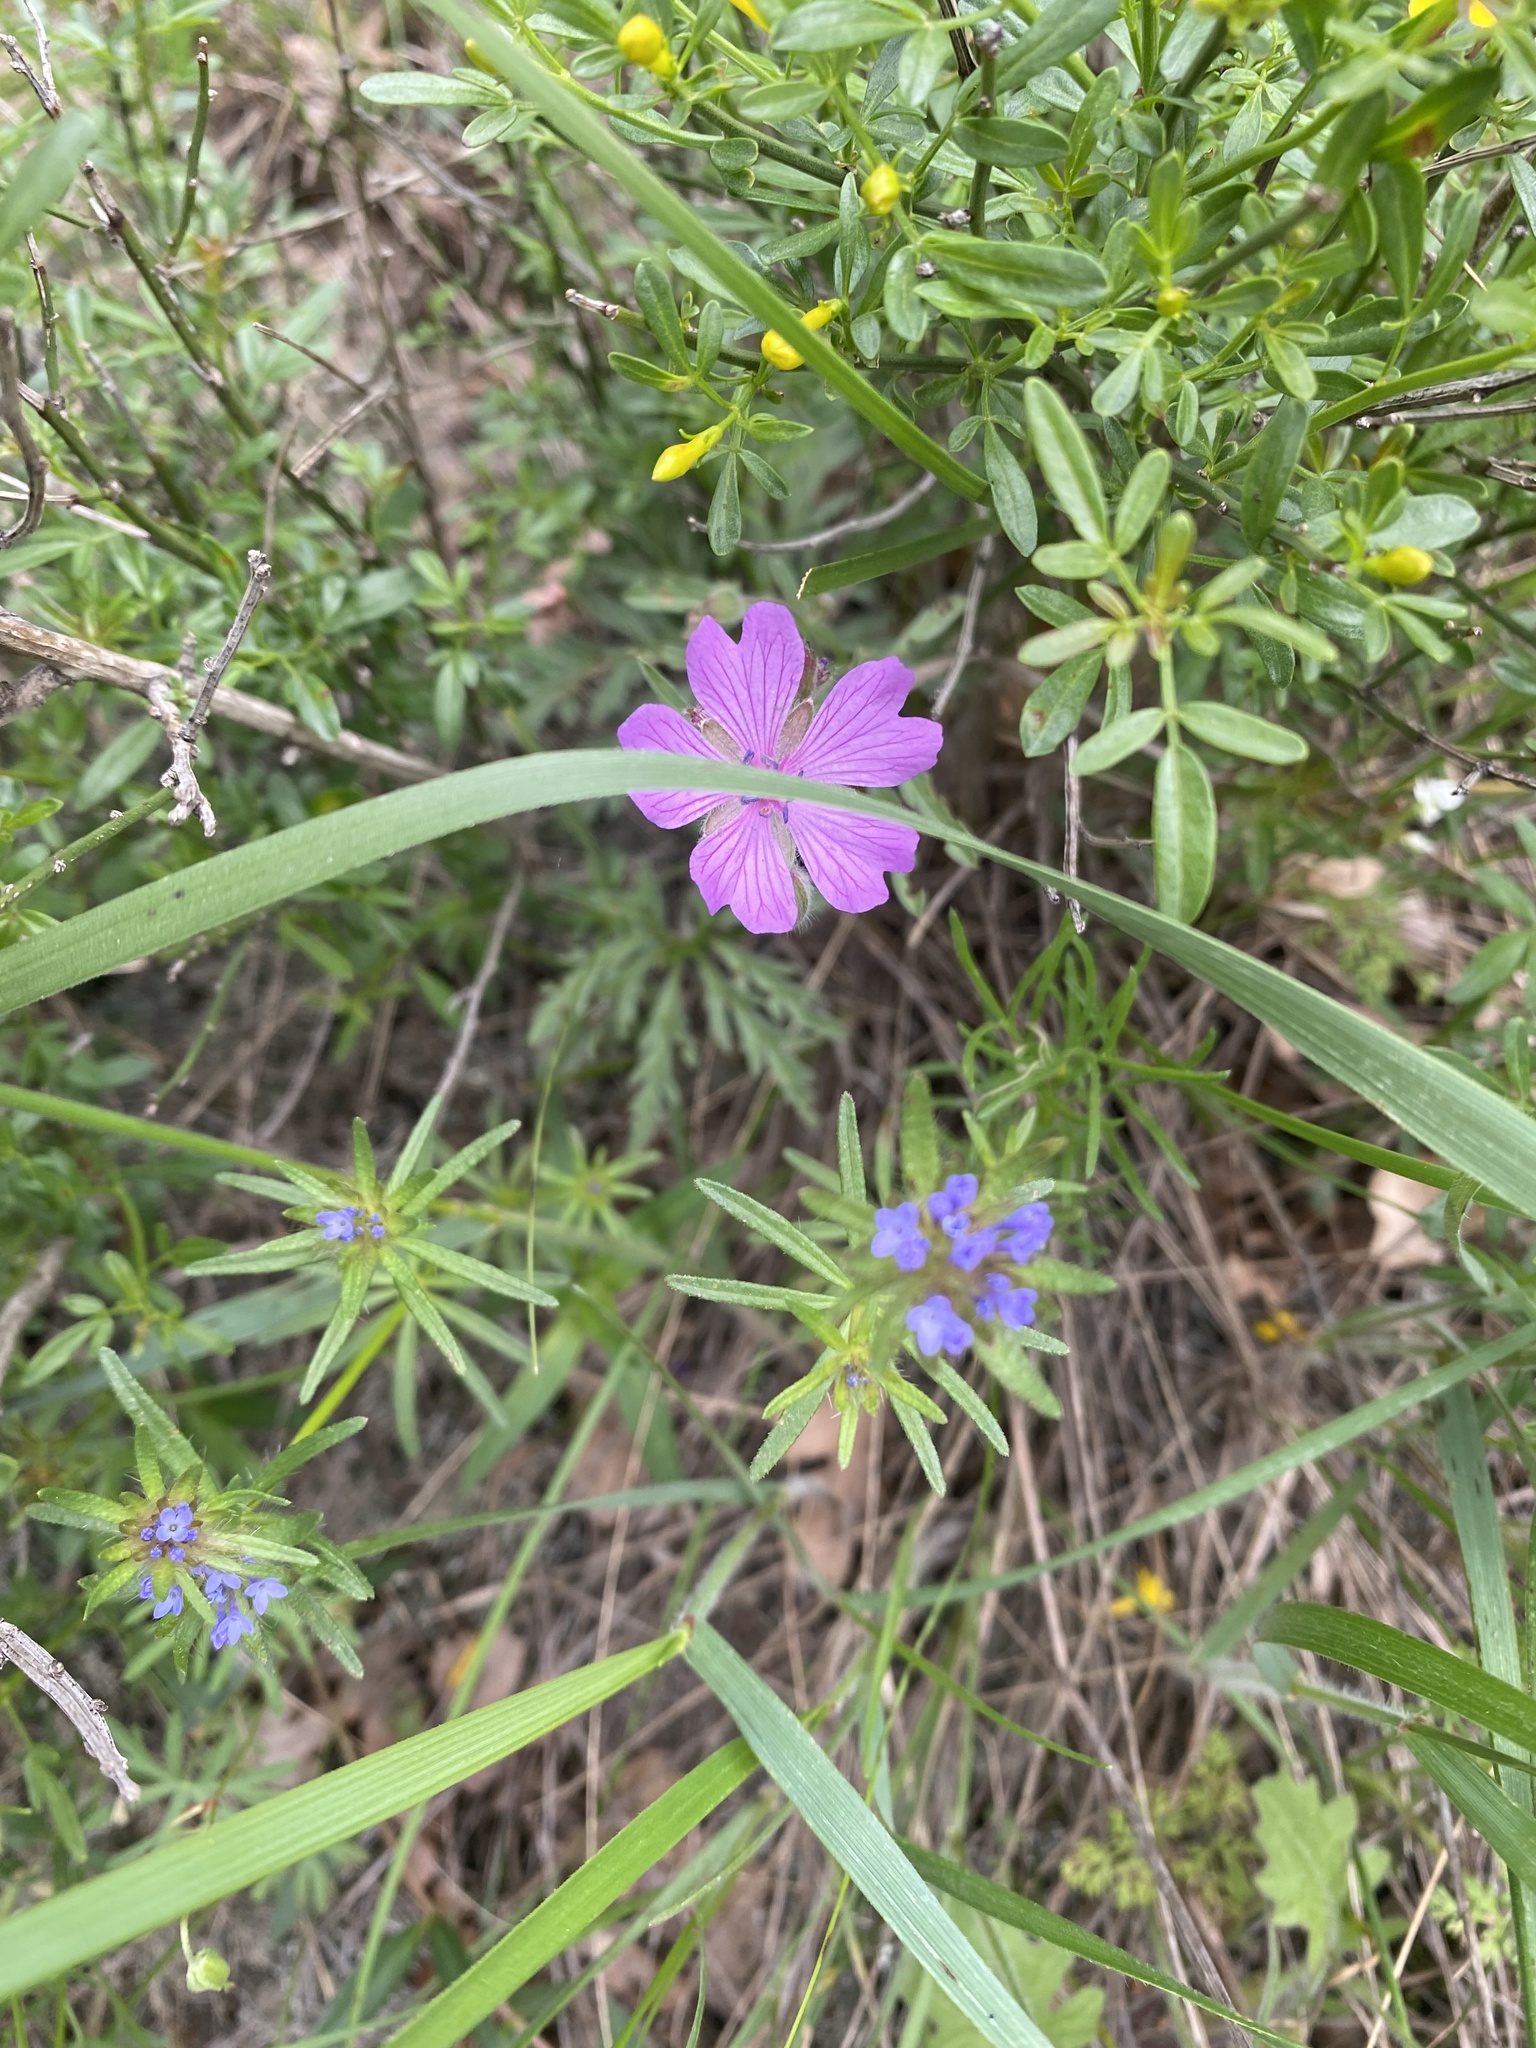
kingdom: Plantae
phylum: Tracheophyta
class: Magnoliopsida
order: Geraniales
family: Geraniaceae
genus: Geranium
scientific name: Geranium tuberosum
